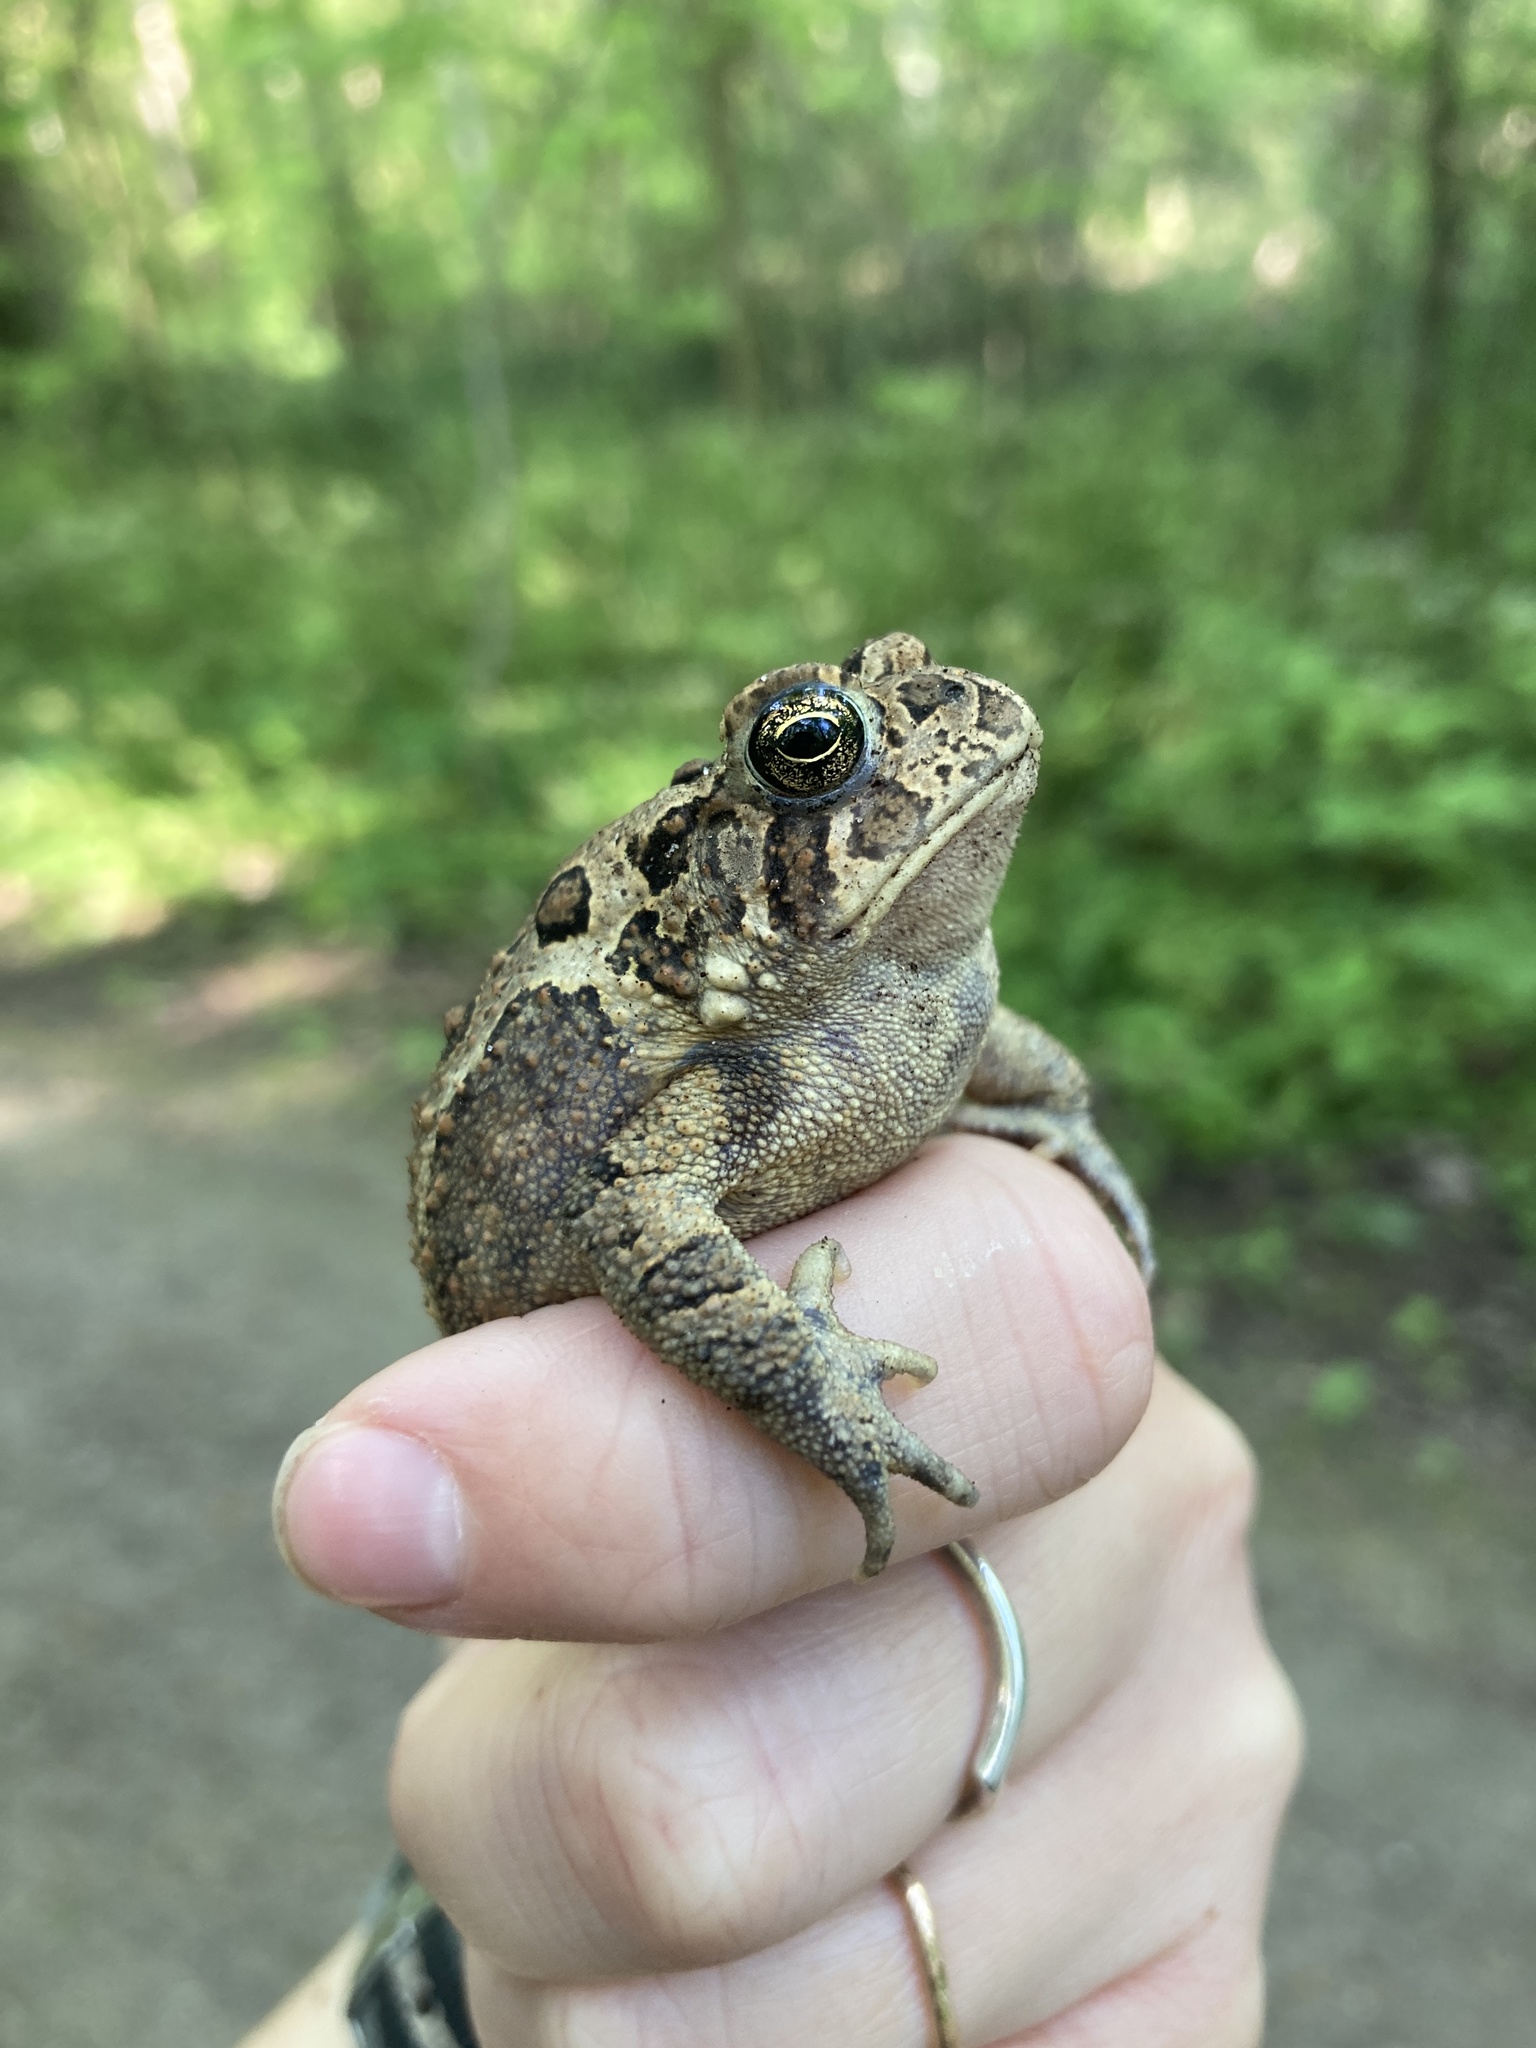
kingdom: Animalia
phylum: Chordata
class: Amphibia
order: Anura
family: Bufonidae
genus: Anaxyrus
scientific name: Anaxyrus americanus
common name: American toad
